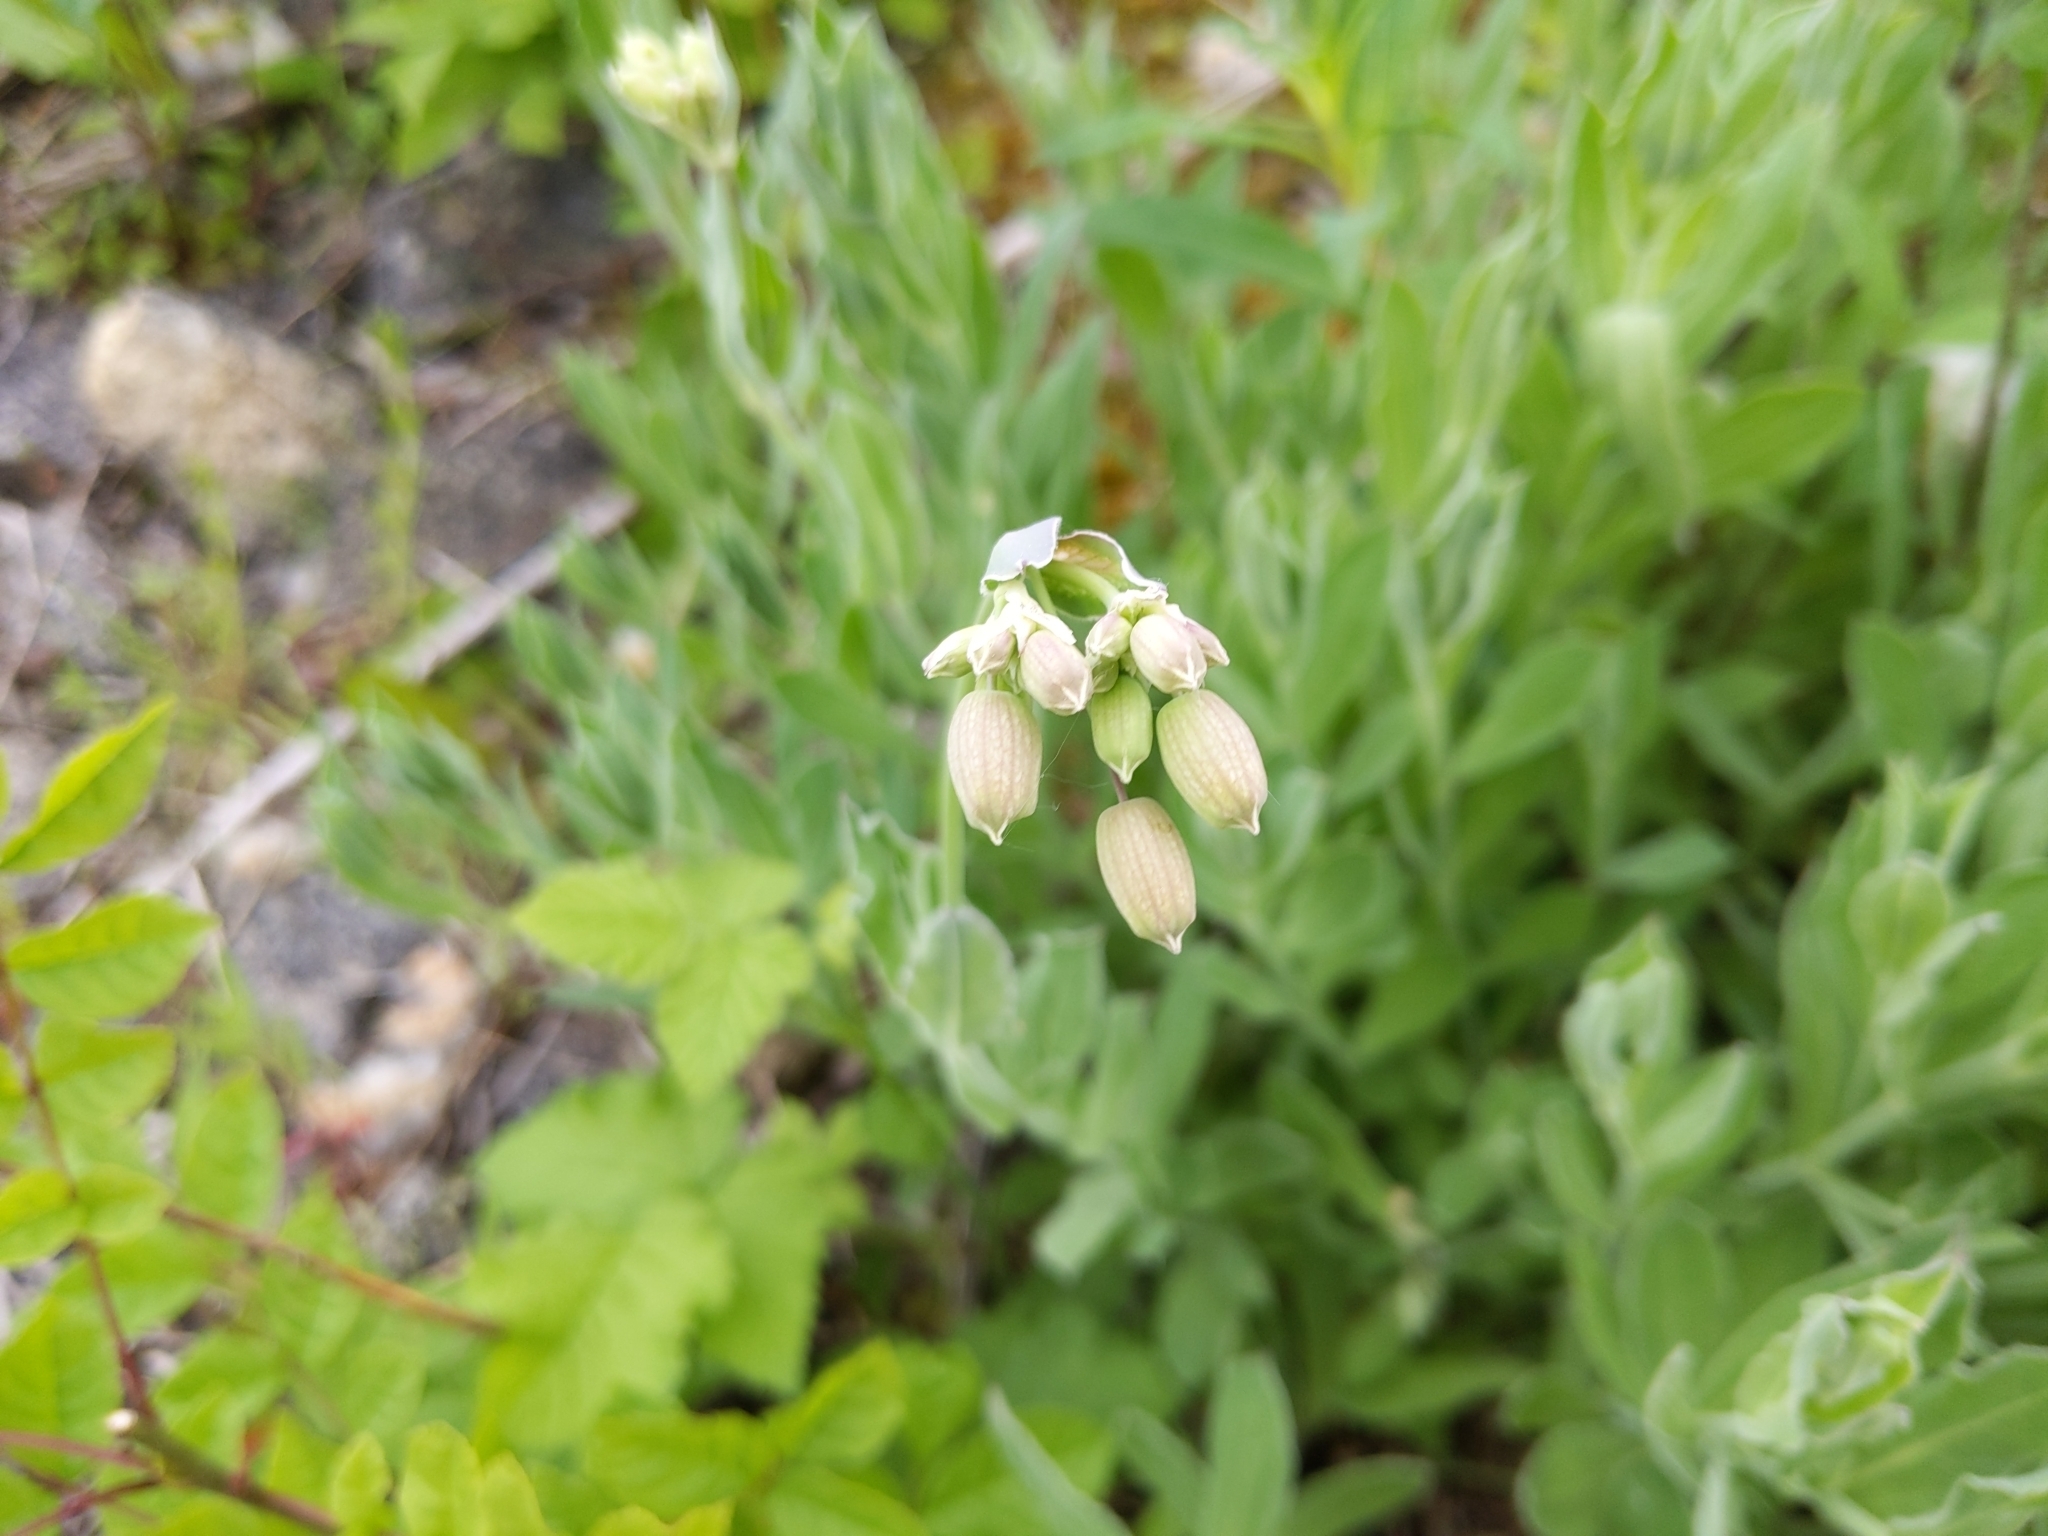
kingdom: Plantae
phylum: Tracheophyta
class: Magnoliopsida
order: Caryophyllales
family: Caryophyllaceae
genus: Silene
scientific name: Silene vulgaris
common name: Bladder campion
